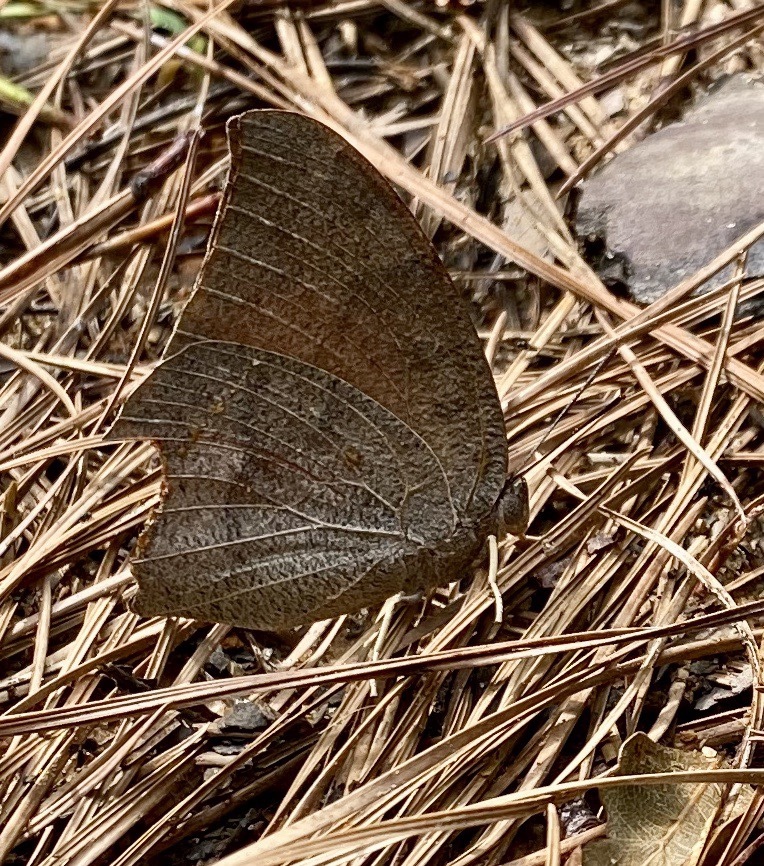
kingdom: Animalia
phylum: Arthropoda
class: Insecta
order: Lepidoptera
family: Nymphalidae
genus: Anaea
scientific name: Anaea andria
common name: Goatweed leafwing
